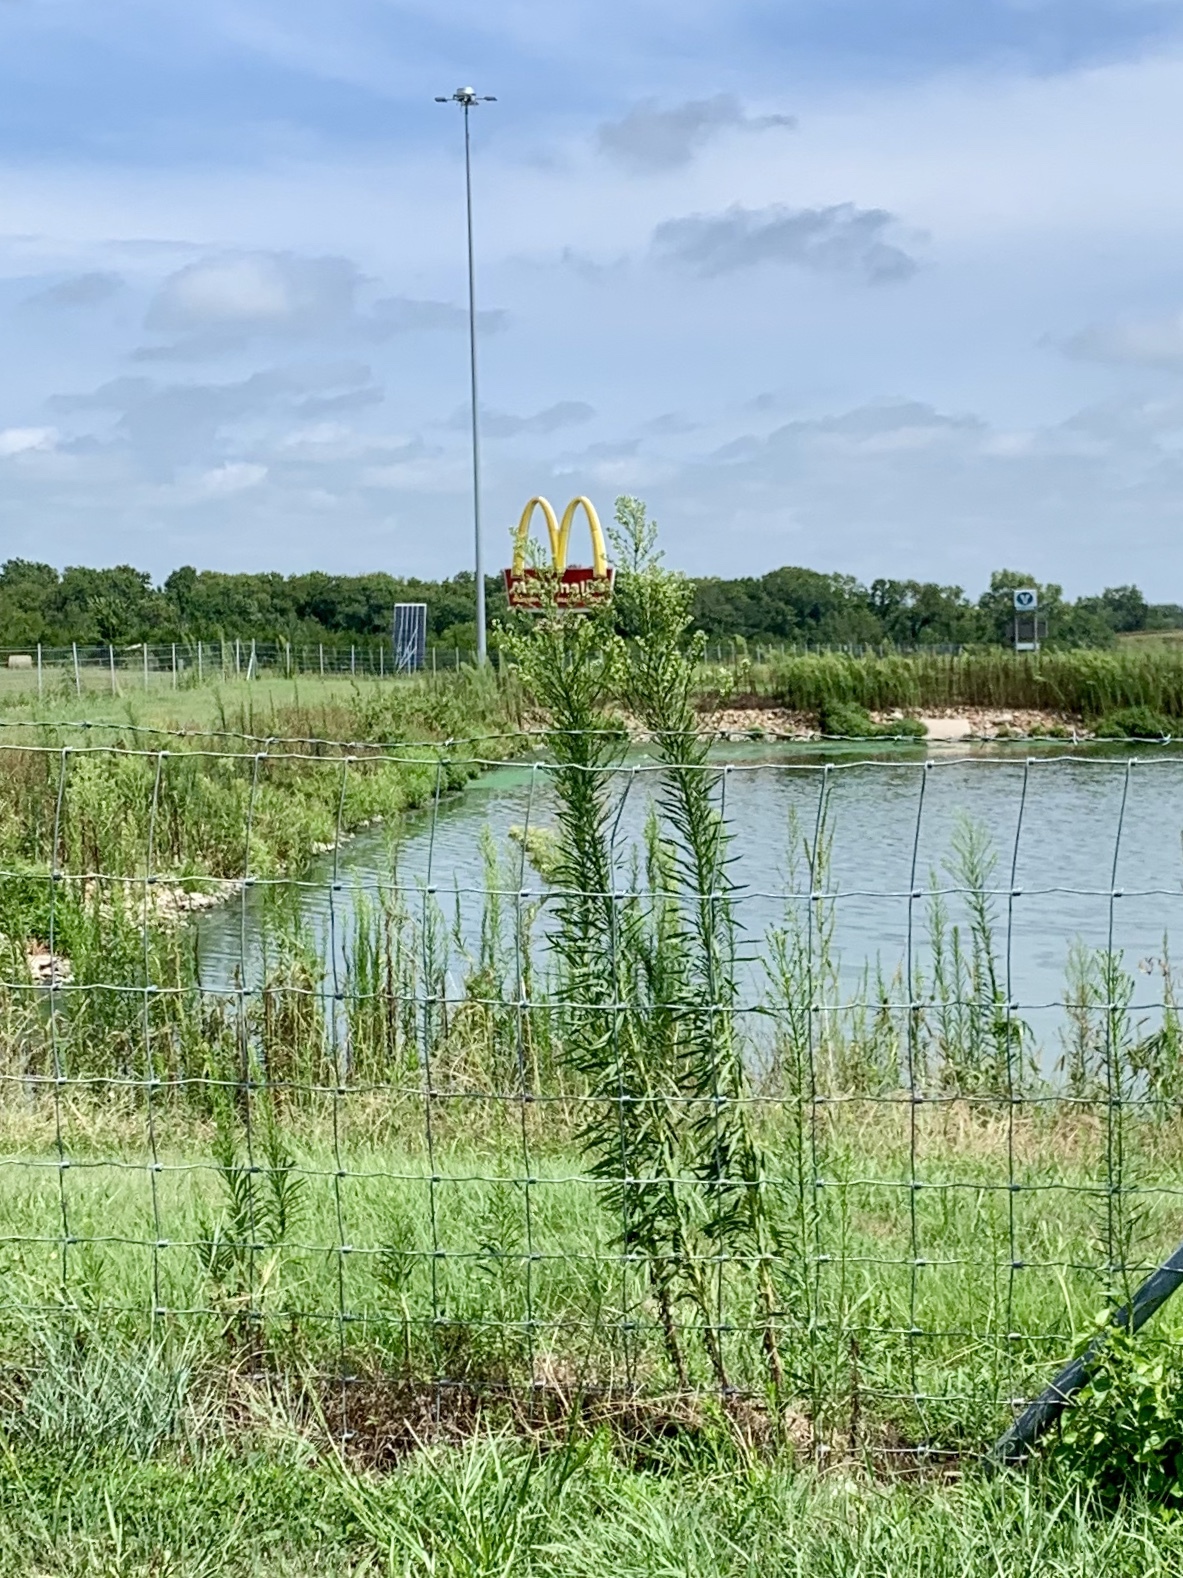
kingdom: Plantae
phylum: Tracheophyta
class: Magnoliopsida
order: Asterales
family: Asteraceae
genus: Erigeron
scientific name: Erigeron canadensis
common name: Canadian fleabane
